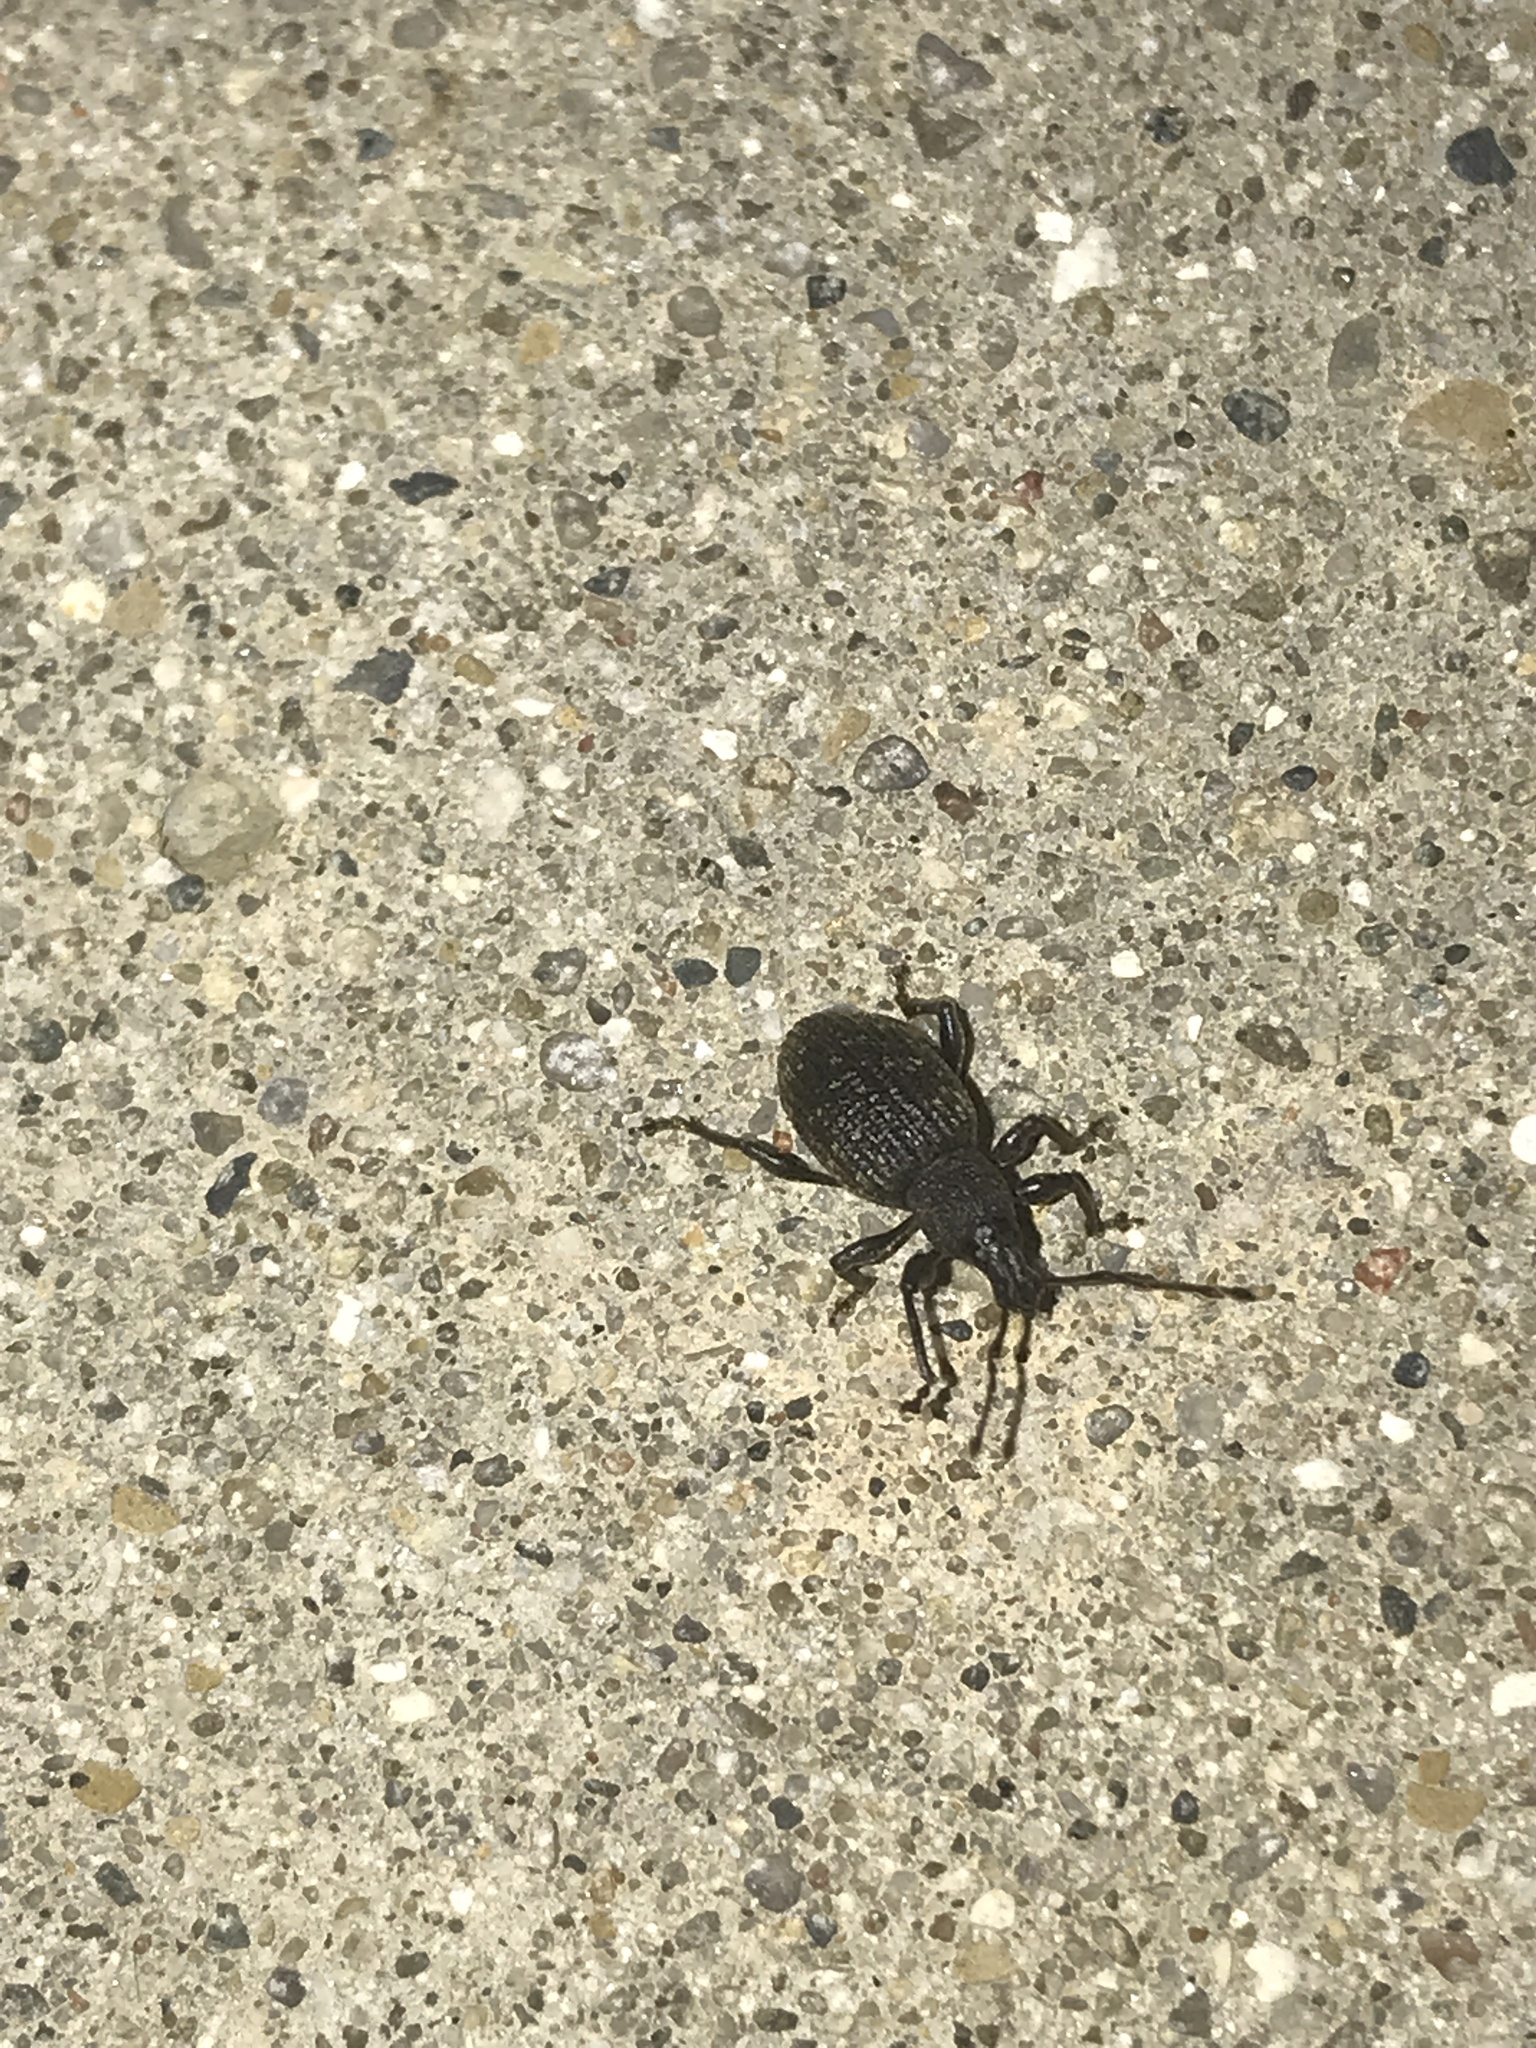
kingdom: Animalia
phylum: Arthropoda
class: Insecta
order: Coleoptera
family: Curculionidae
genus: Otiorhynchus
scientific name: Otiorhynchus sulcatus
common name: Black vine weevil
